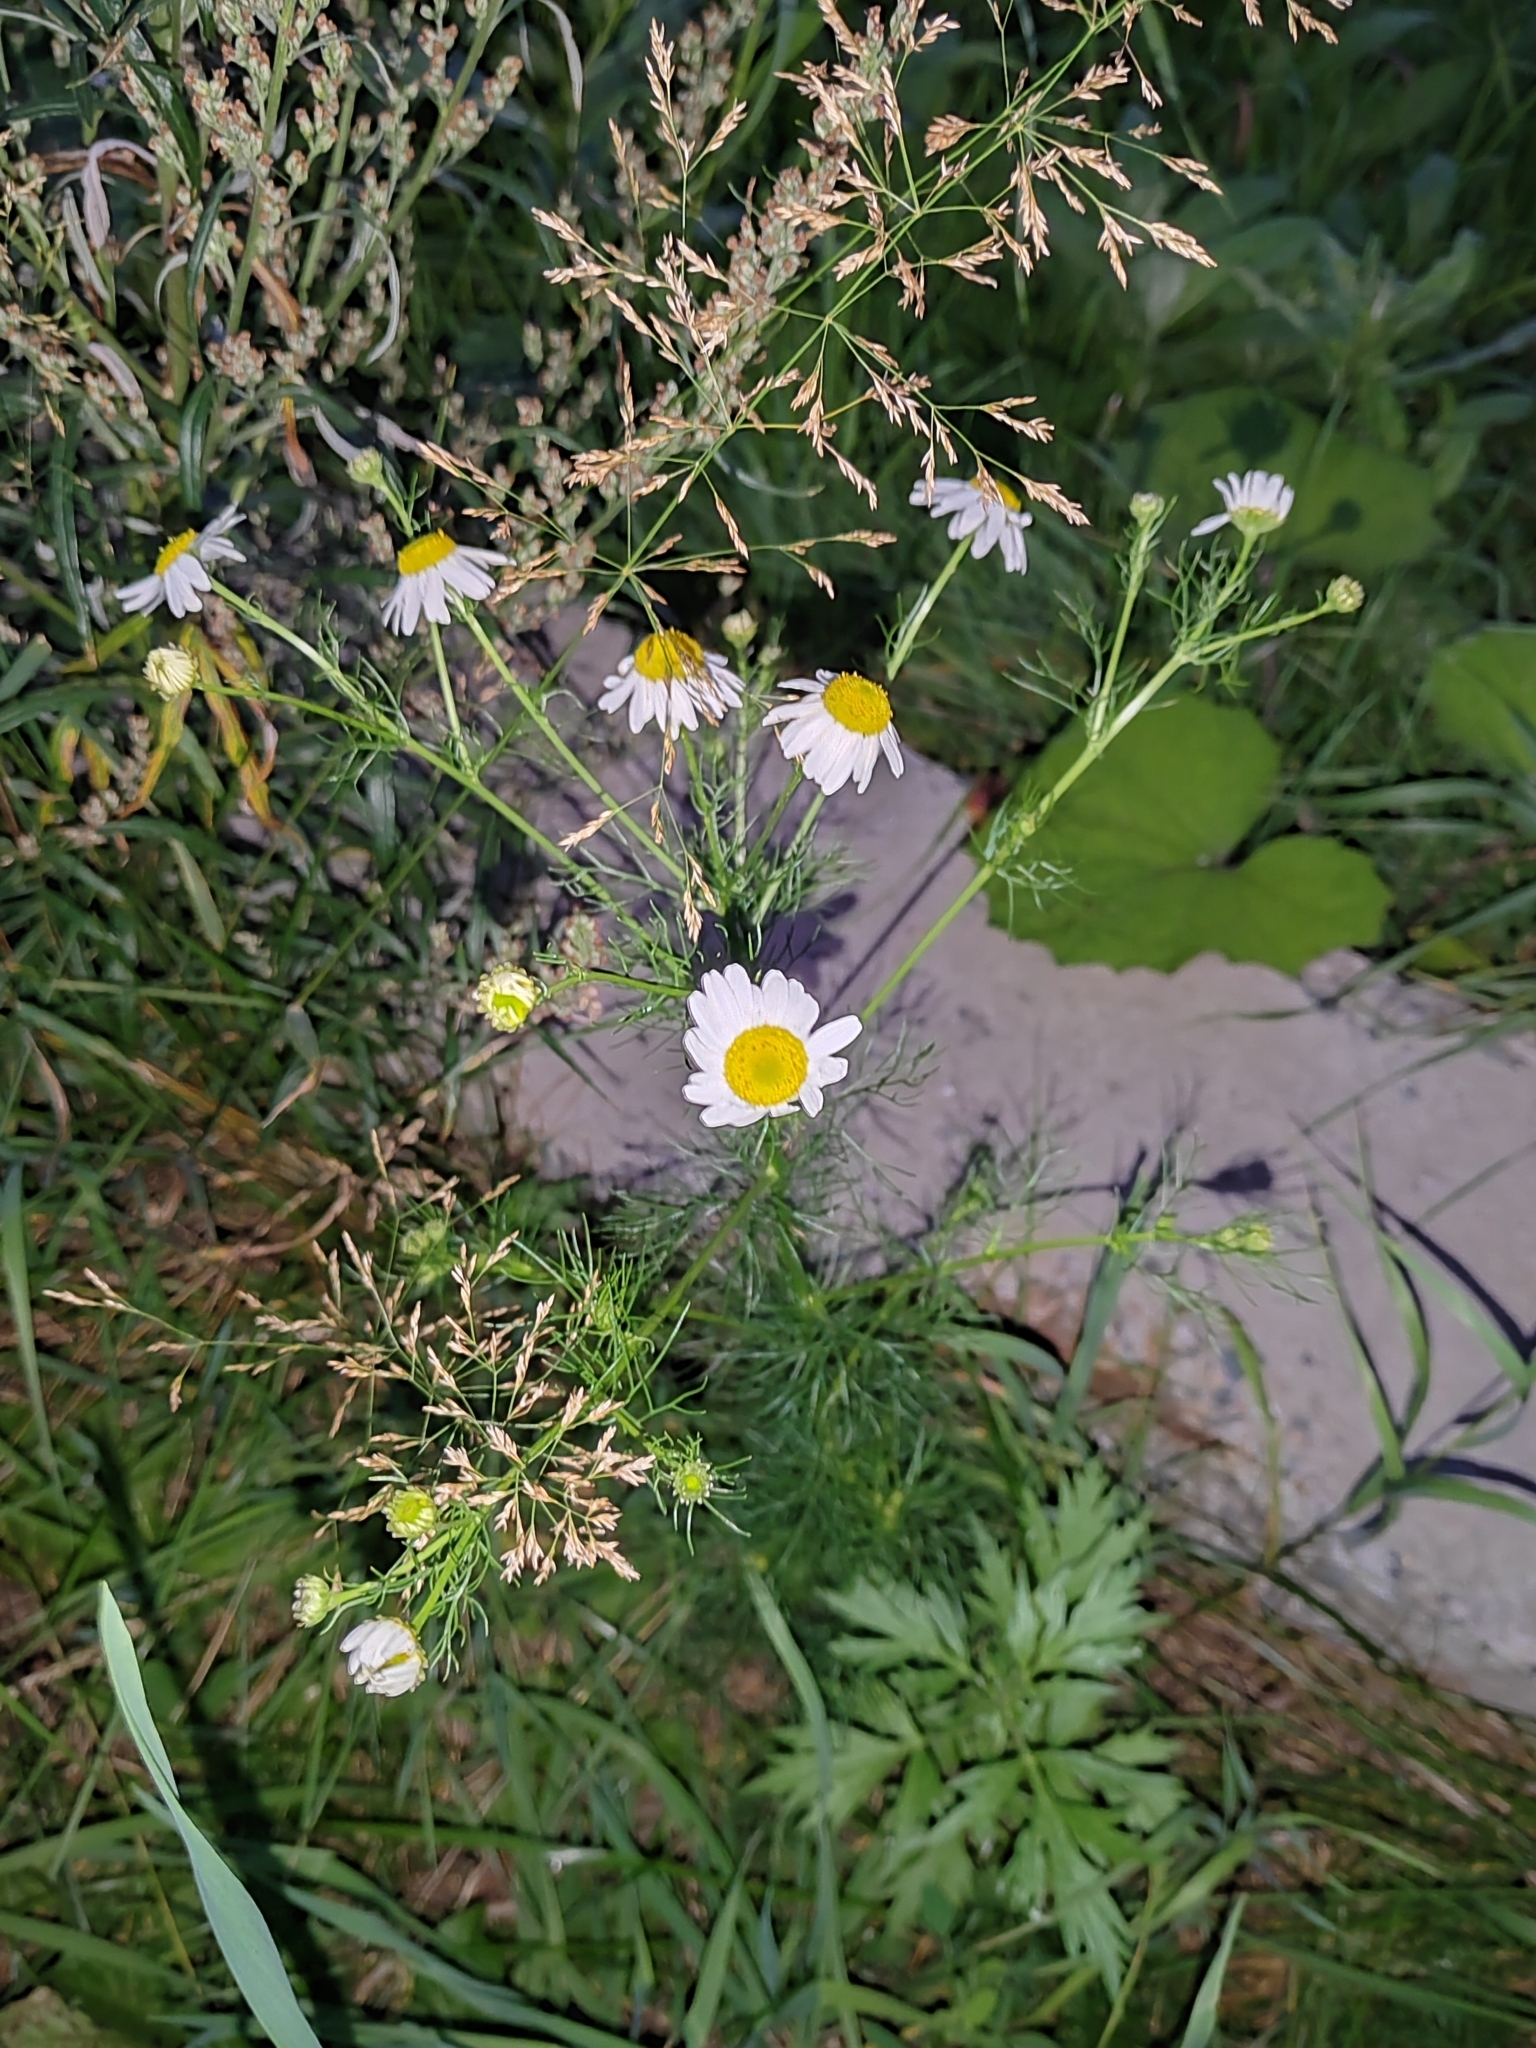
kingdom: Plantae
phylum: Tracheophyta
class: Magnoliopsida
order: Asterales
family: Asteraceae
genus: Tripleurospermum
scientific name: Tripleurospermum inodorum
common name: Scentless mayweed
